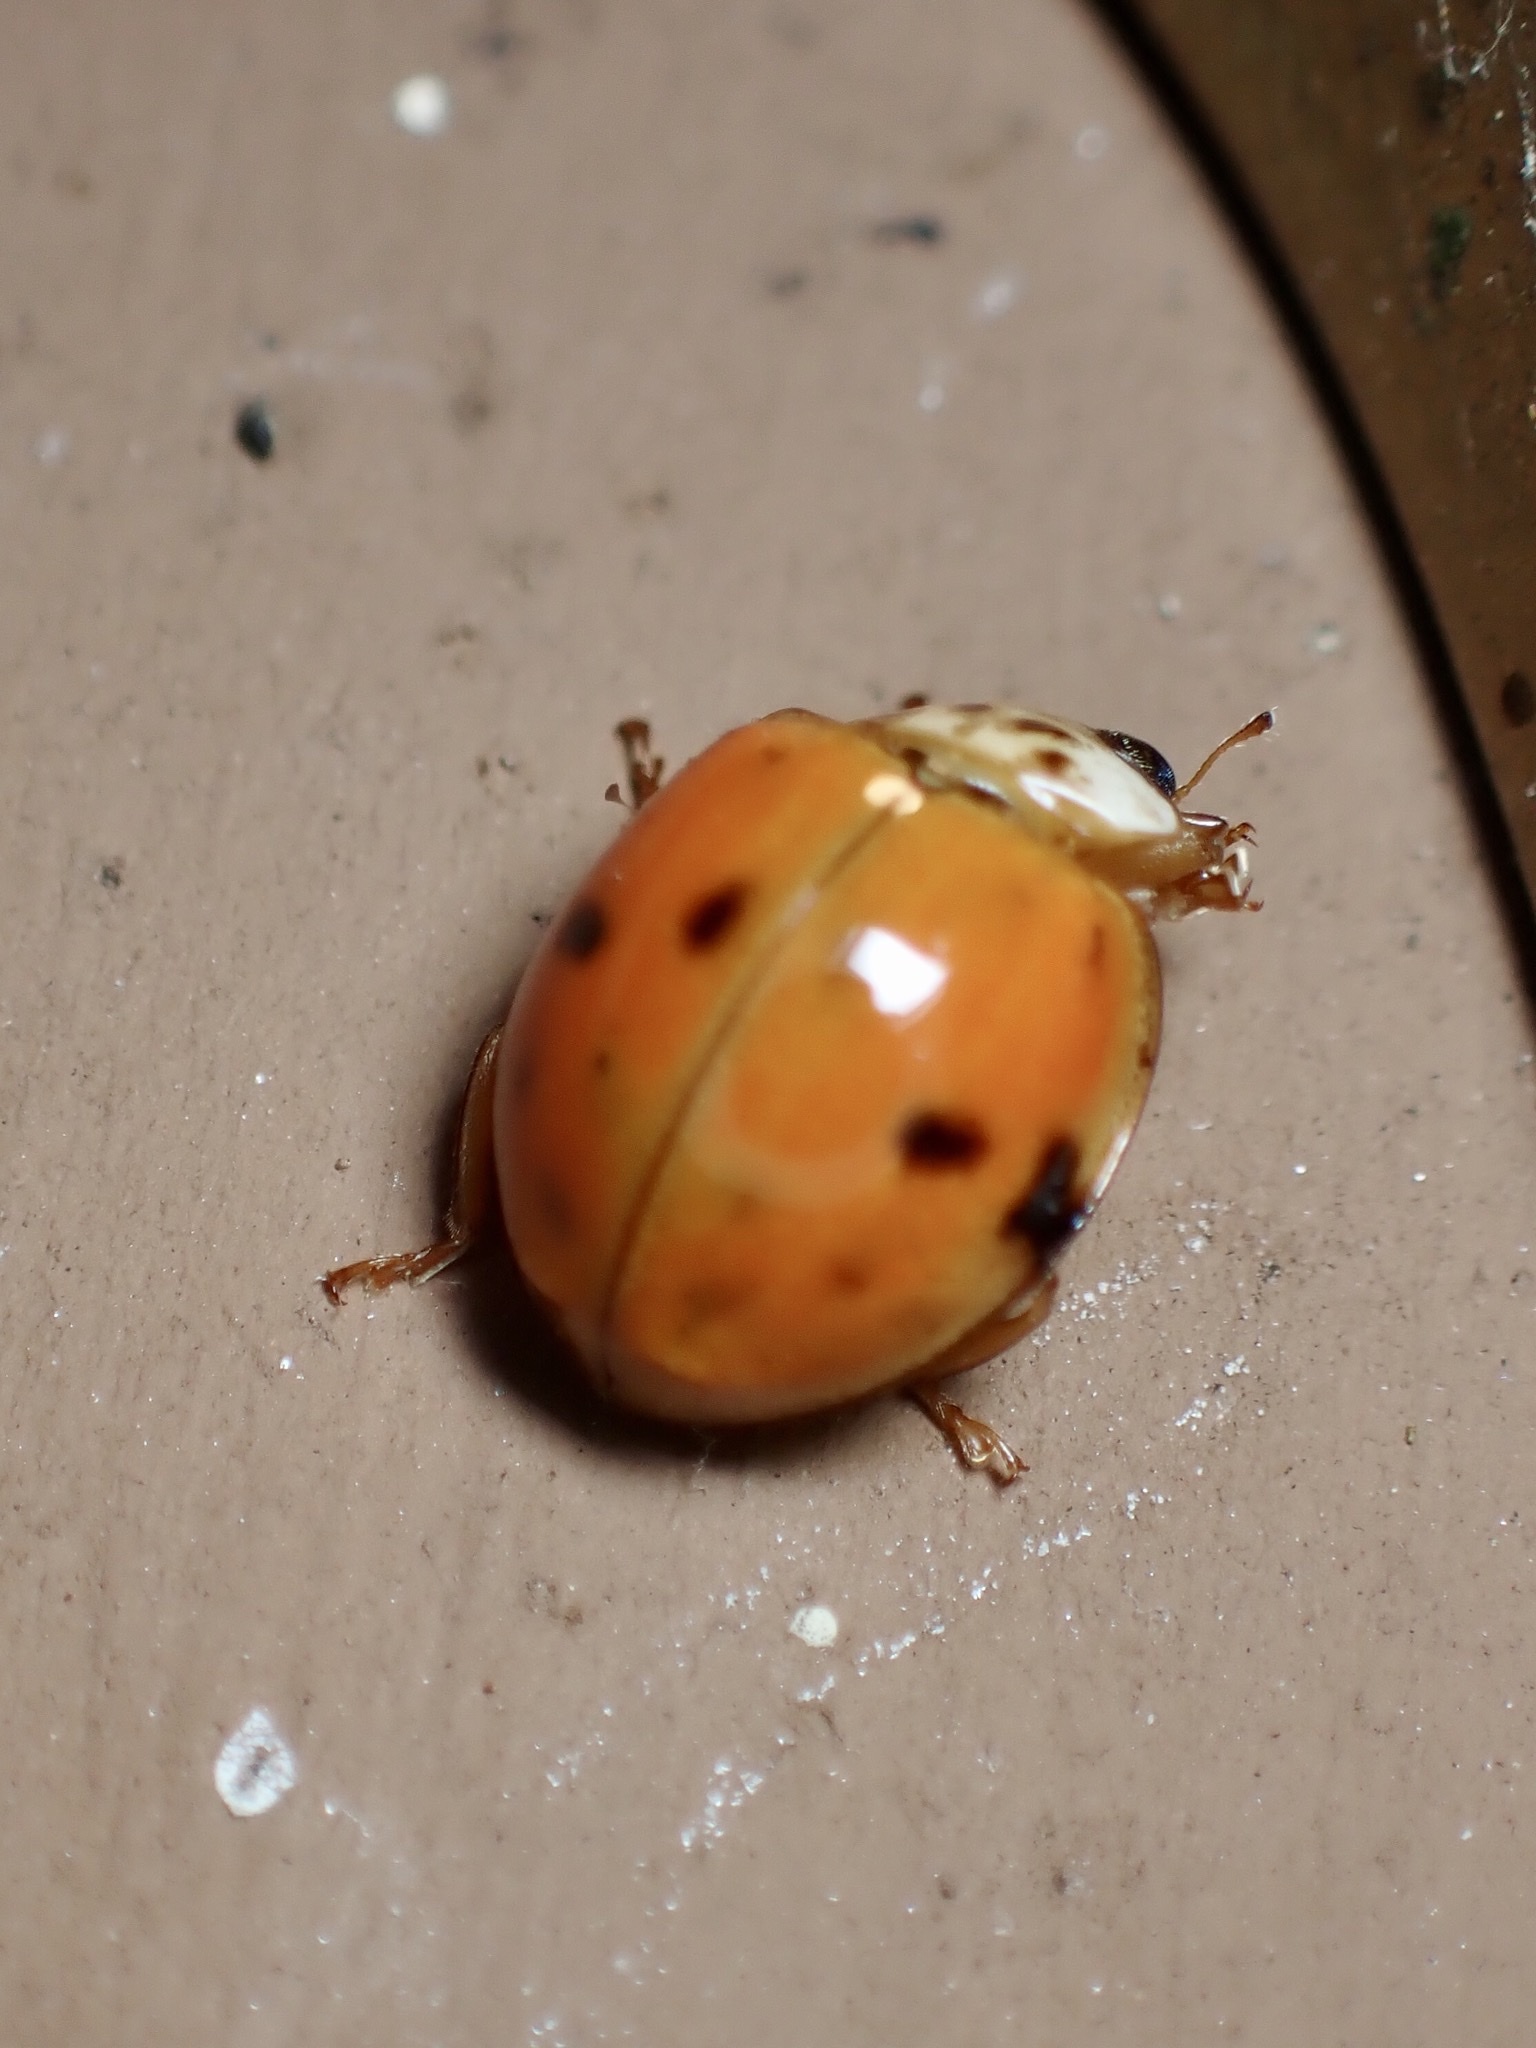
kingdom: Animalia
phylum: Arthropoda
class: Insecta
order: Coleoptera
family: Coccinellidae
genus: Harmonia
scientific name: Harmonia axyridis
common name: Harlequin ladybird
